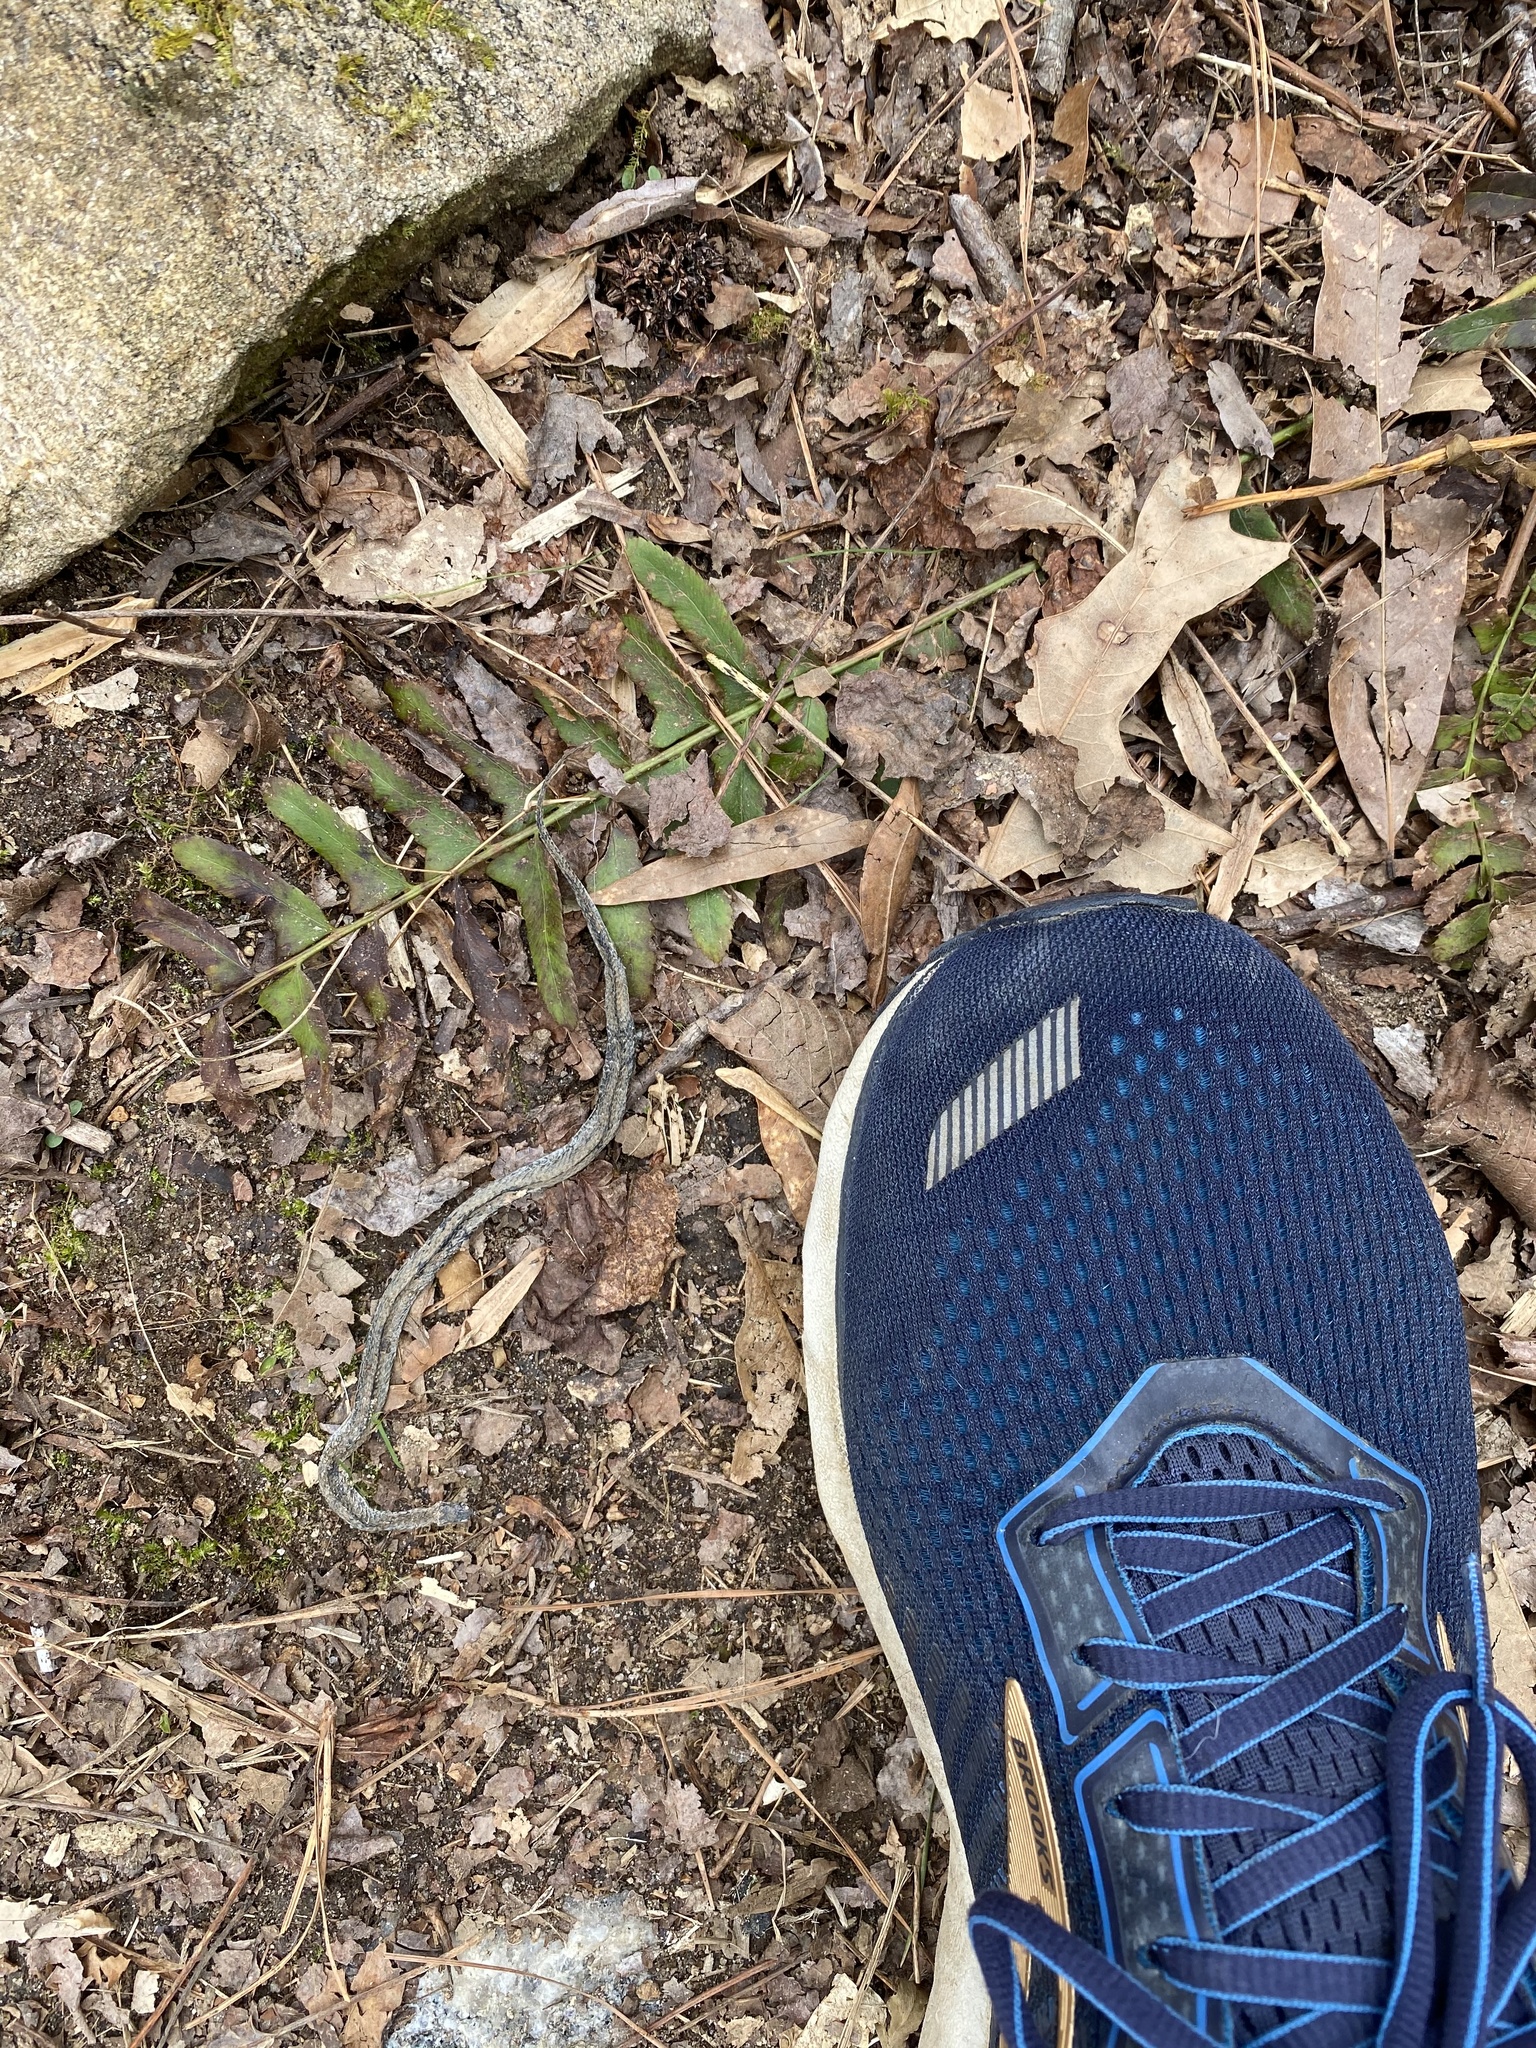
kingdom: Animalia
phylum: Chordata
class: Squamata
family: Colubridae
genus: Storeria
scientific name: Storeria dekayi
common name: (dekay’s) brown snake
